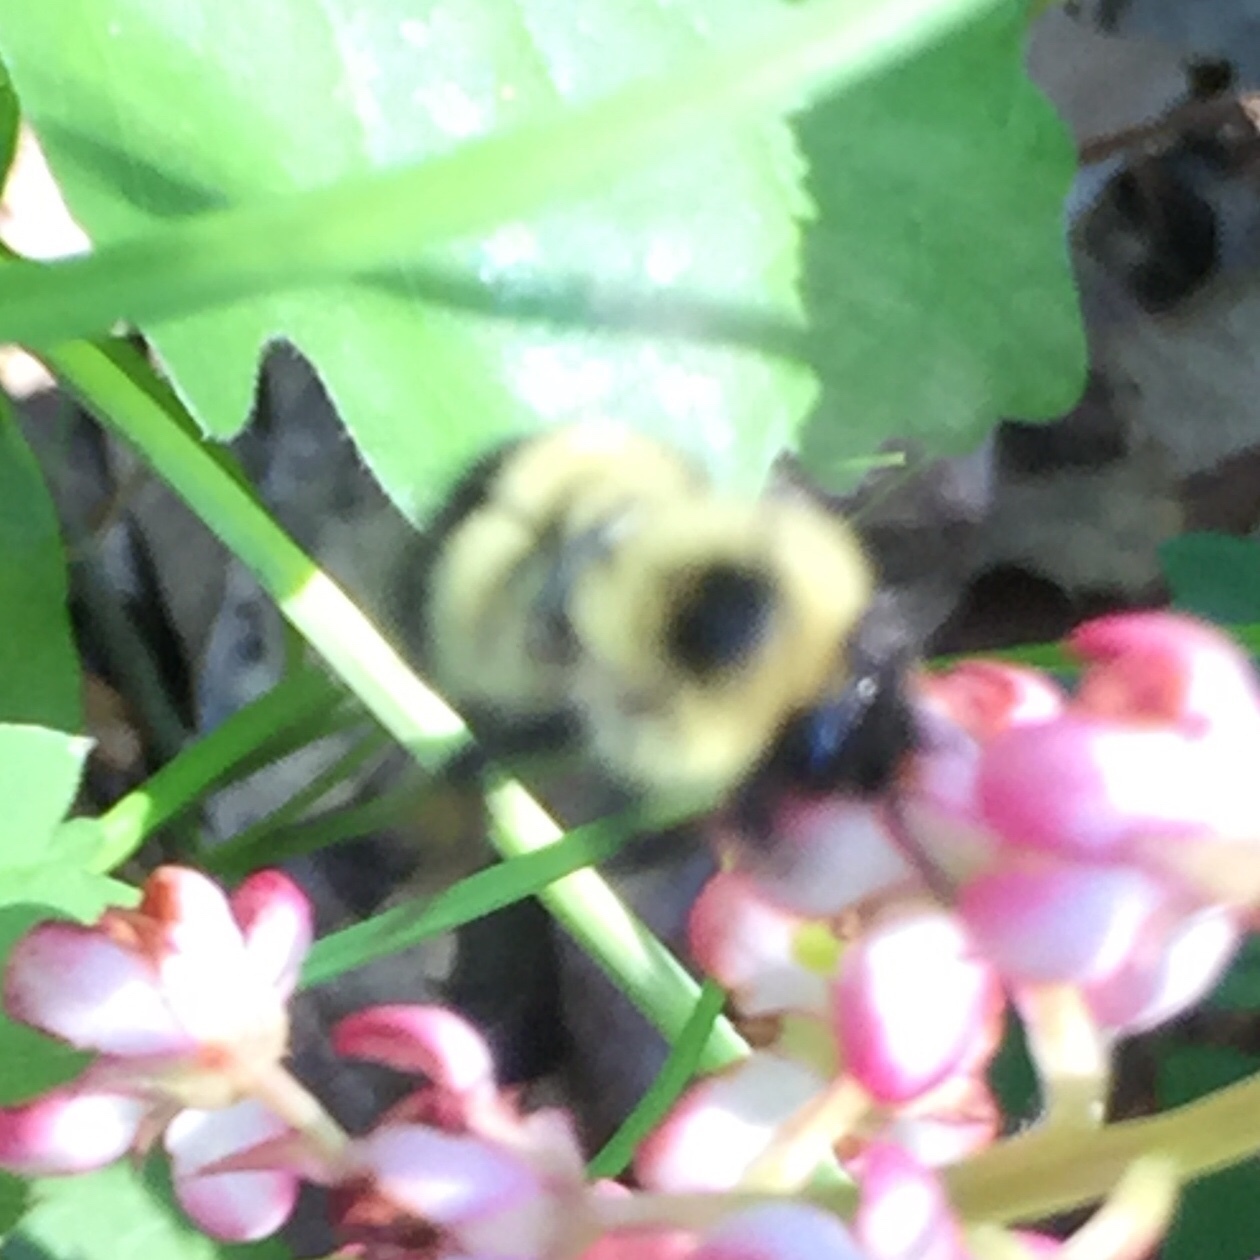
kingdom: Animalia
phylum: Arthropoda
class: Insecta
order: Hymenoptera
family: Apidae
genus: Pyrobombus
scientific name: Pyrobombus
